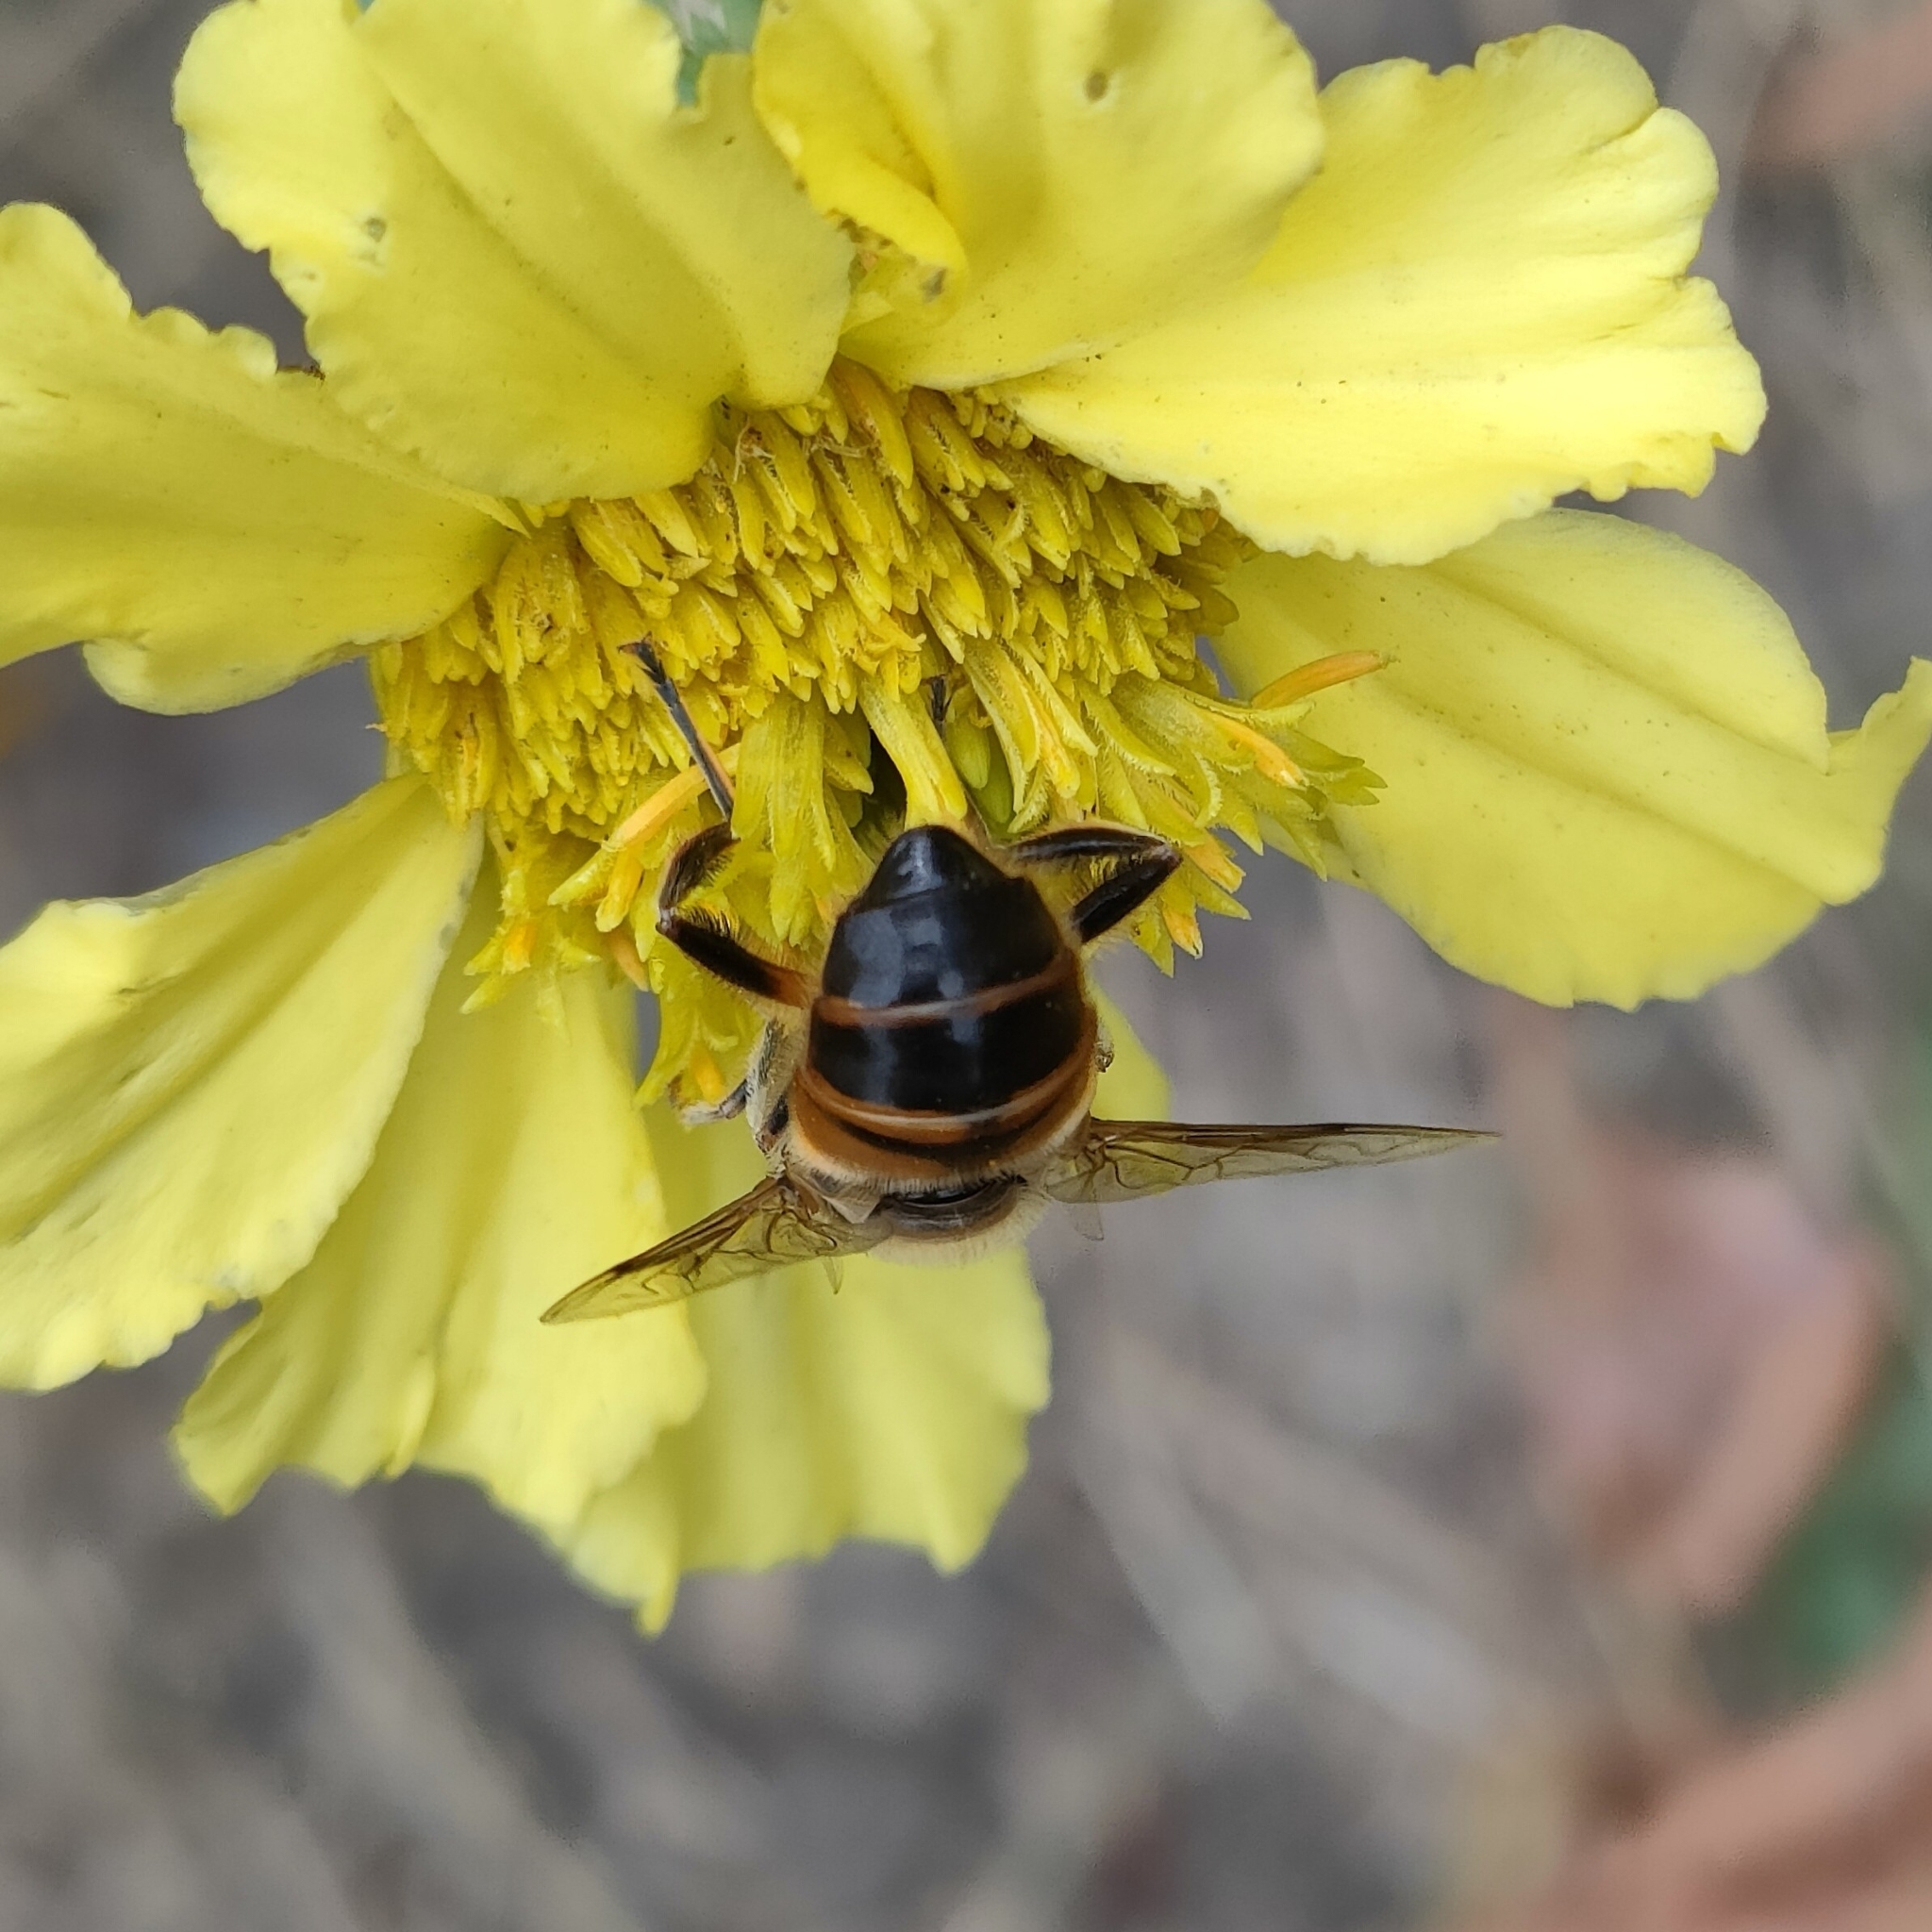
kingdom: Animalia
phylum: Arthropoda
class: Insecta
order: Diptera
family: Syrphidae
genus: Eristalis
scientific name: Eristalis tenax
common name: Drone fly
